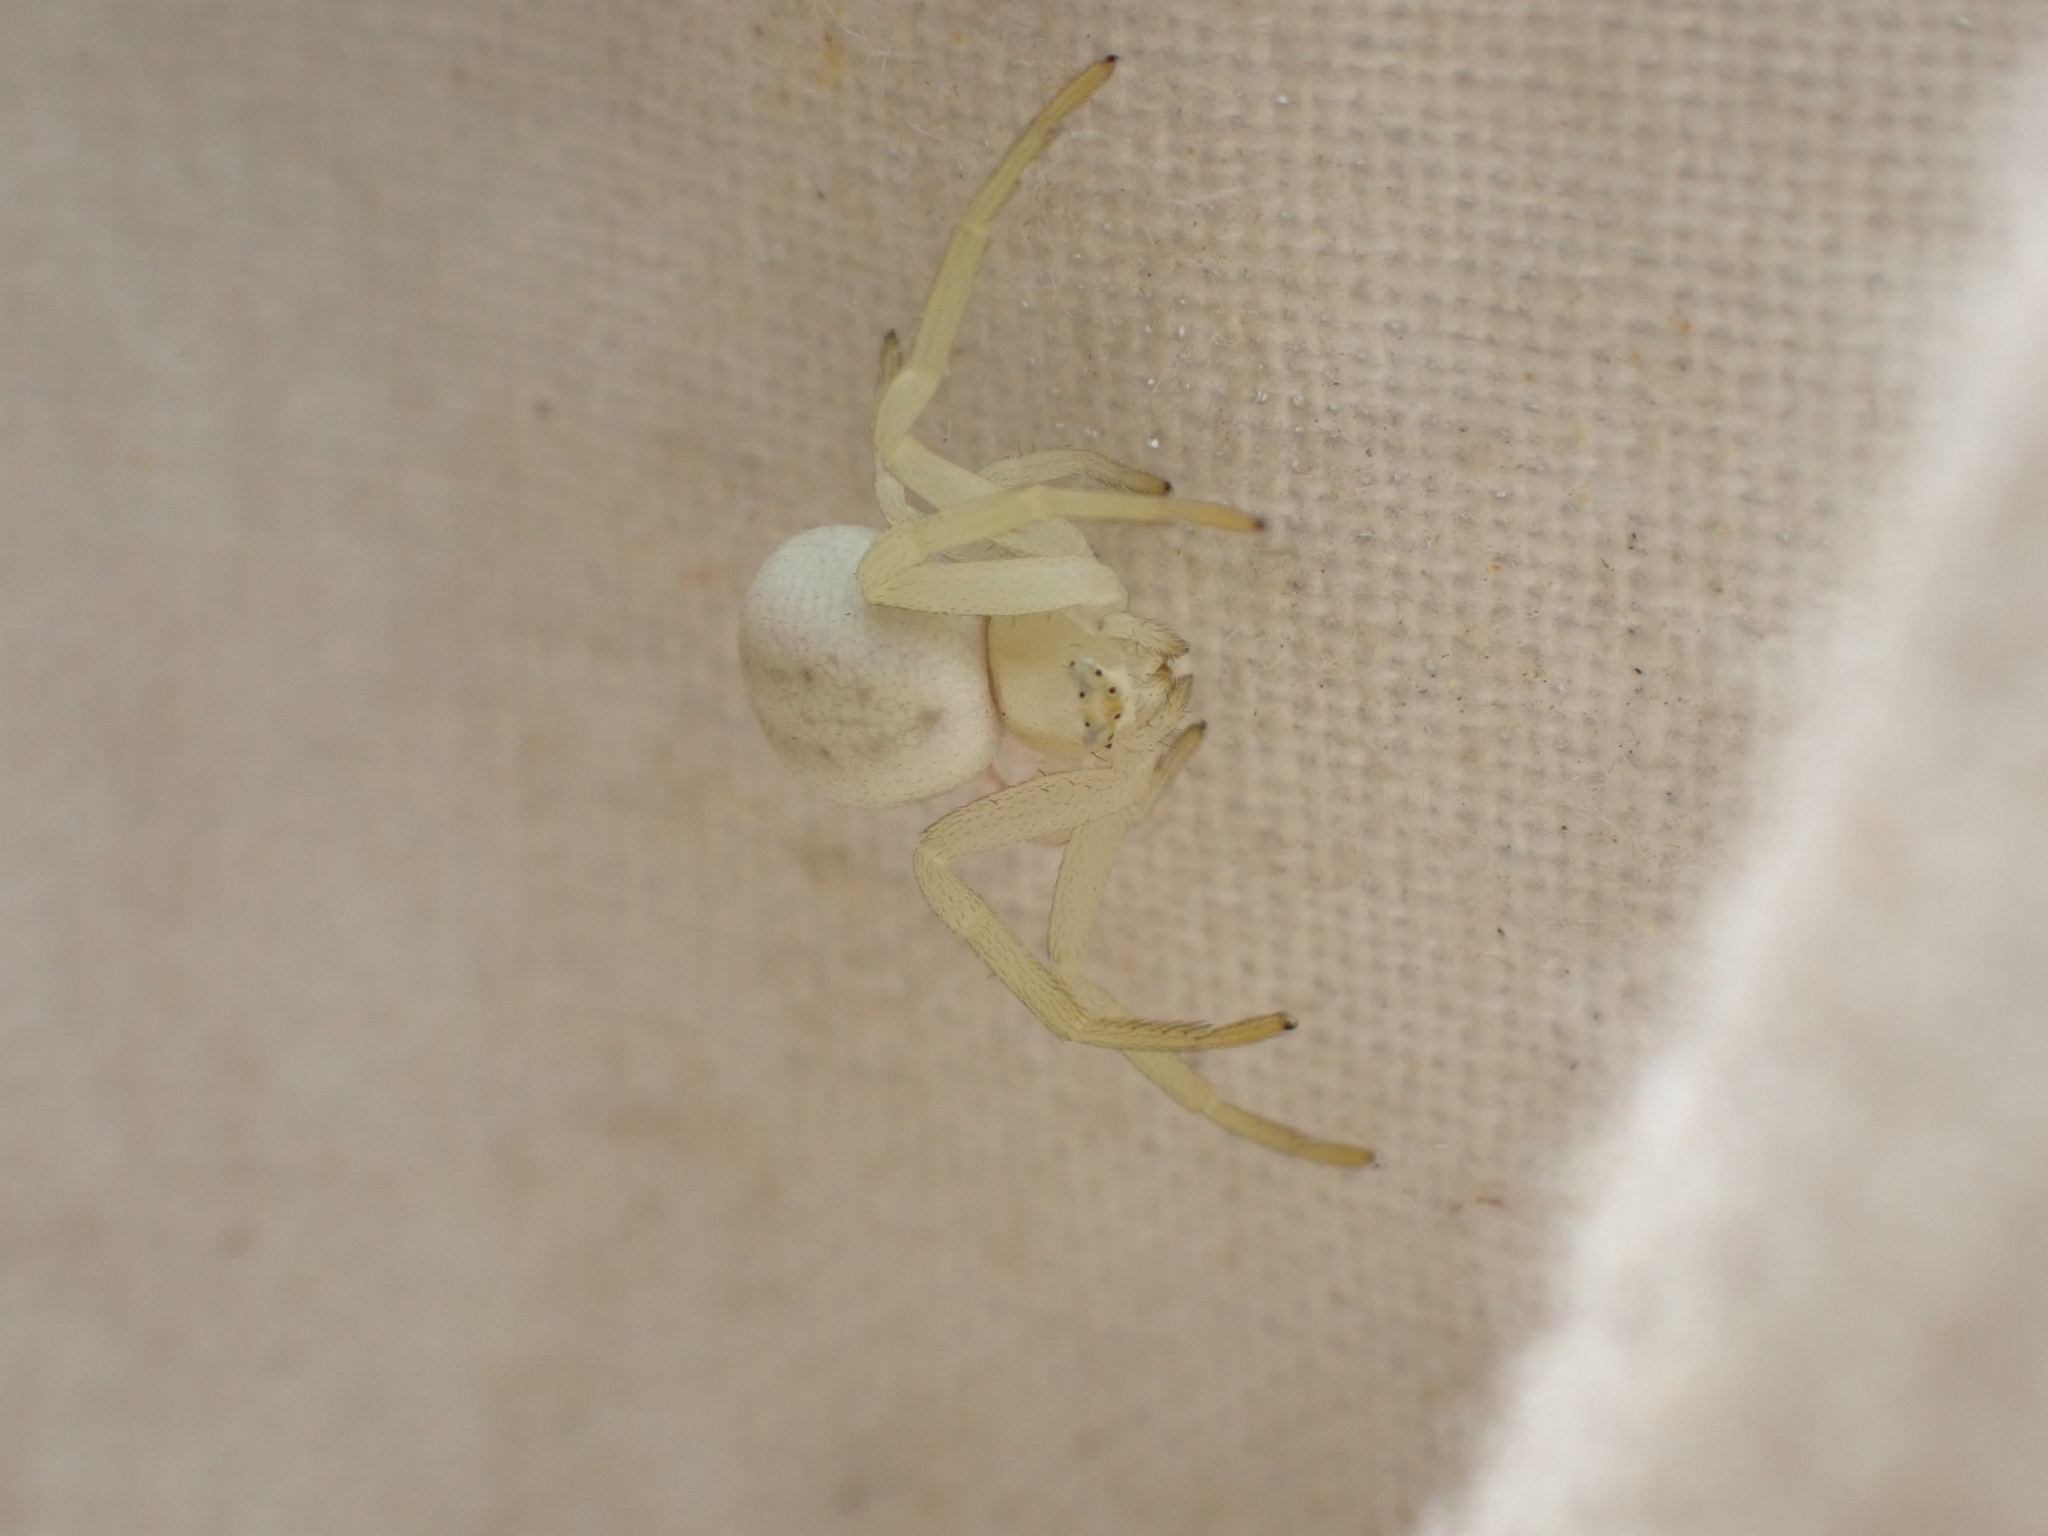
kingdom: Animalia
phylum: Arthropoda
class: Arachnida
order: Araneae
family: Thomisidae
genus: Misumena
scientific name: Misumena vatia
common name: Goldenrod crab spider
